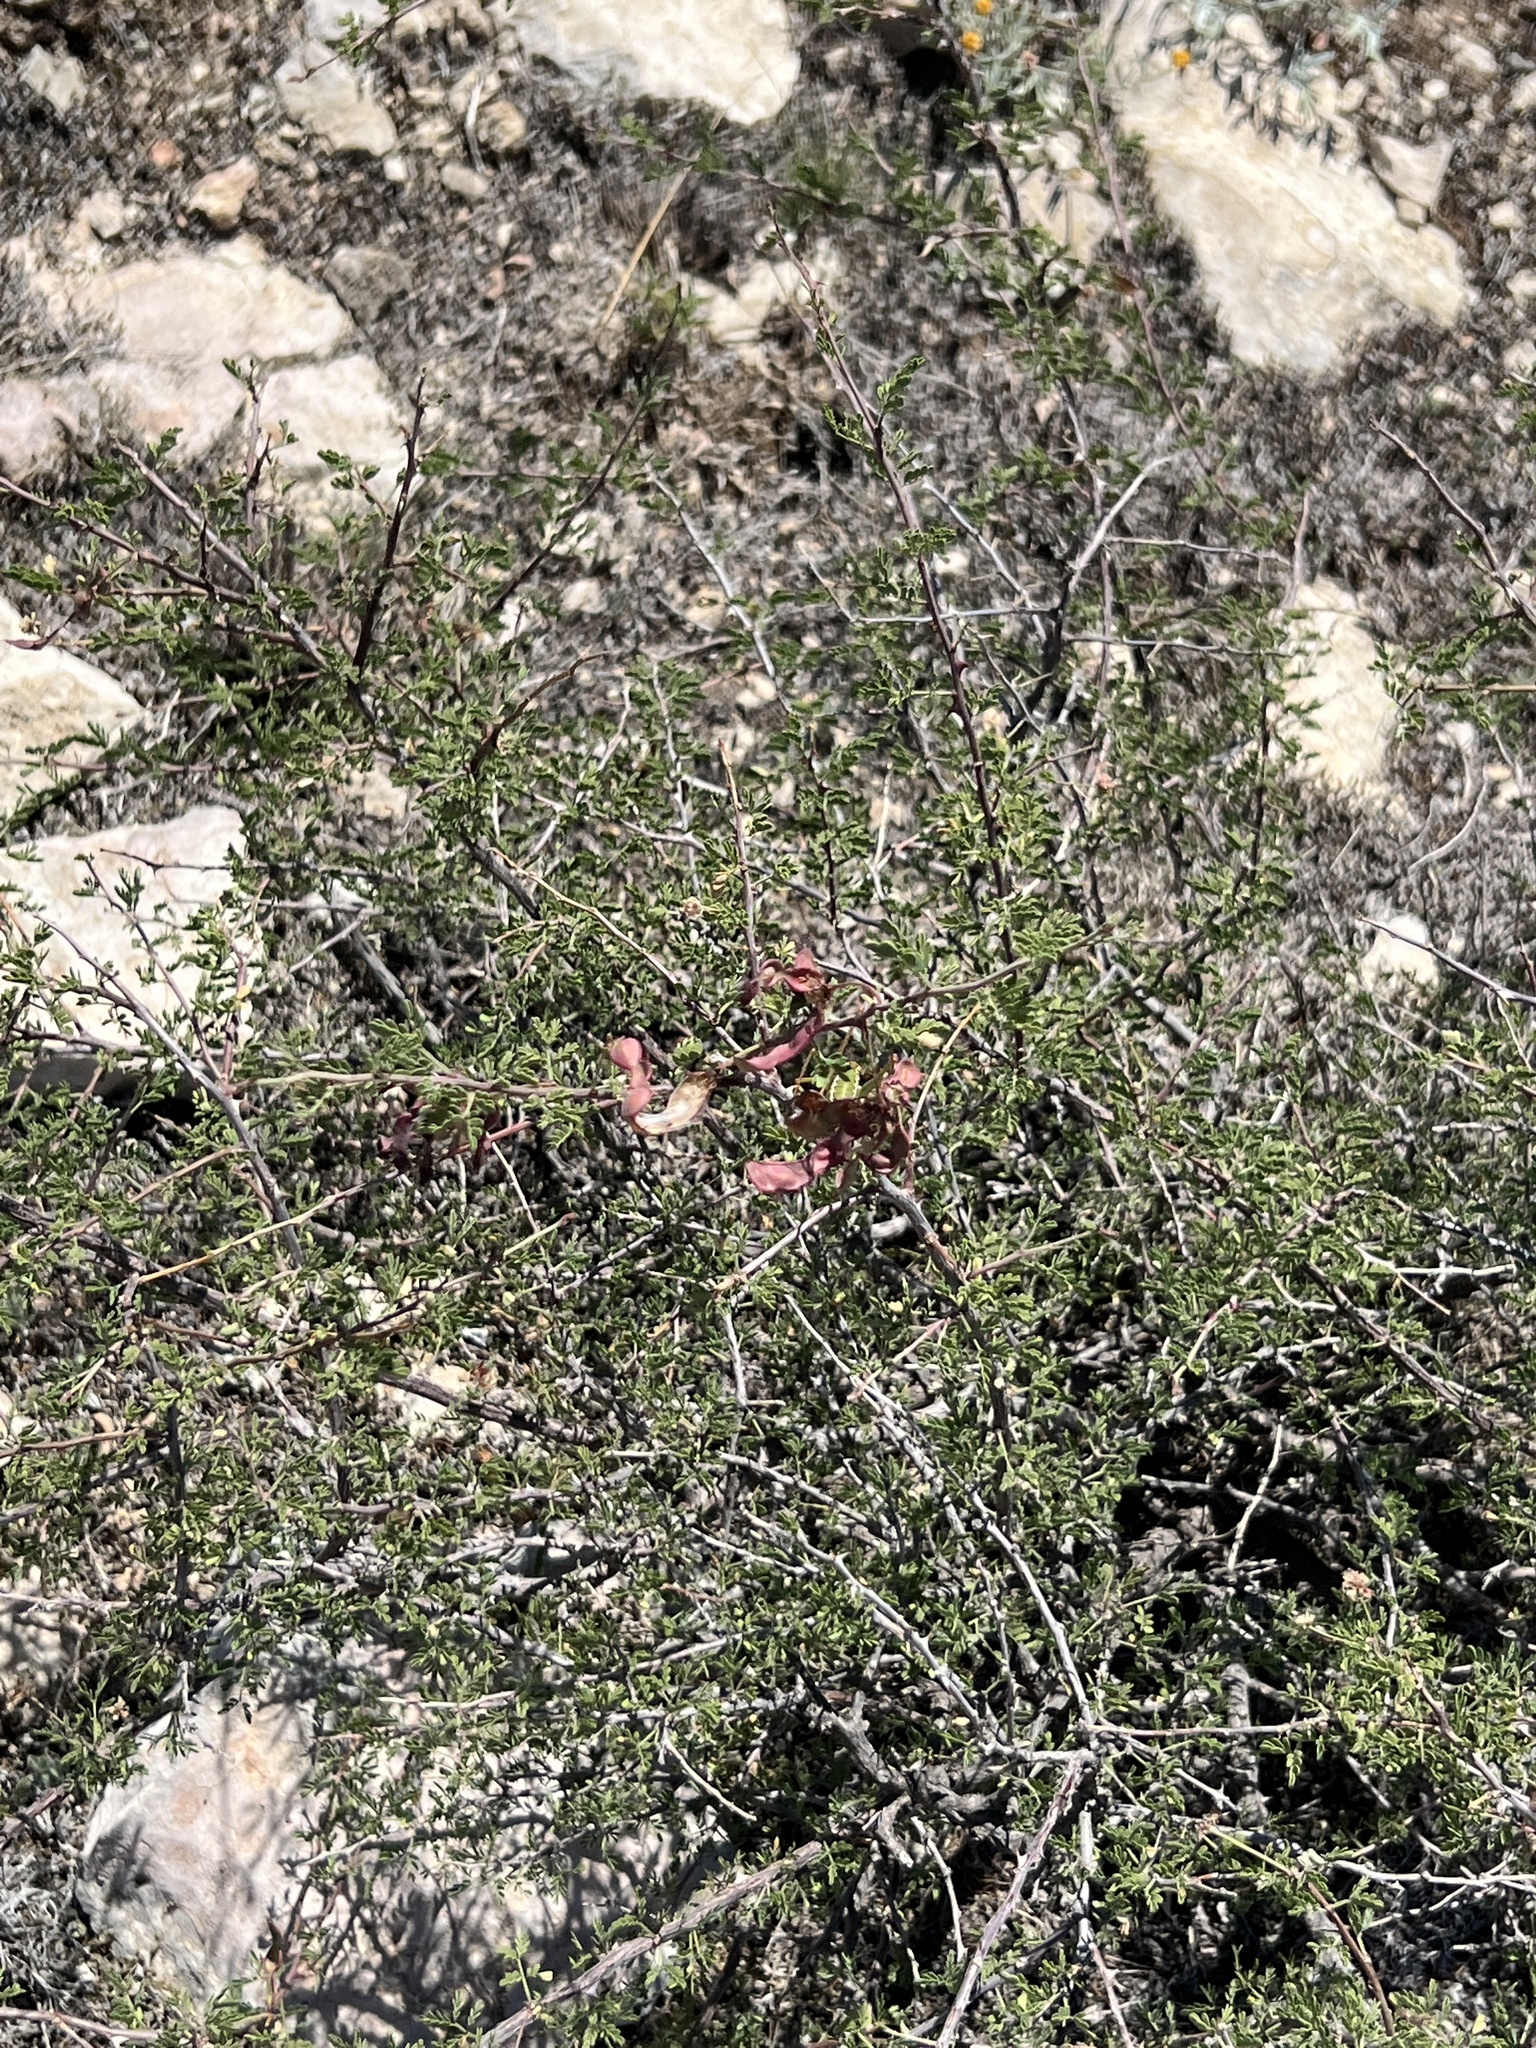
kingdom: Plantae
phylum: Tracheophyta
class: Magnoliopsida
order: Fabales
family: Fabaceae
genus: Mimosa
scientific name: Mimosa texana
